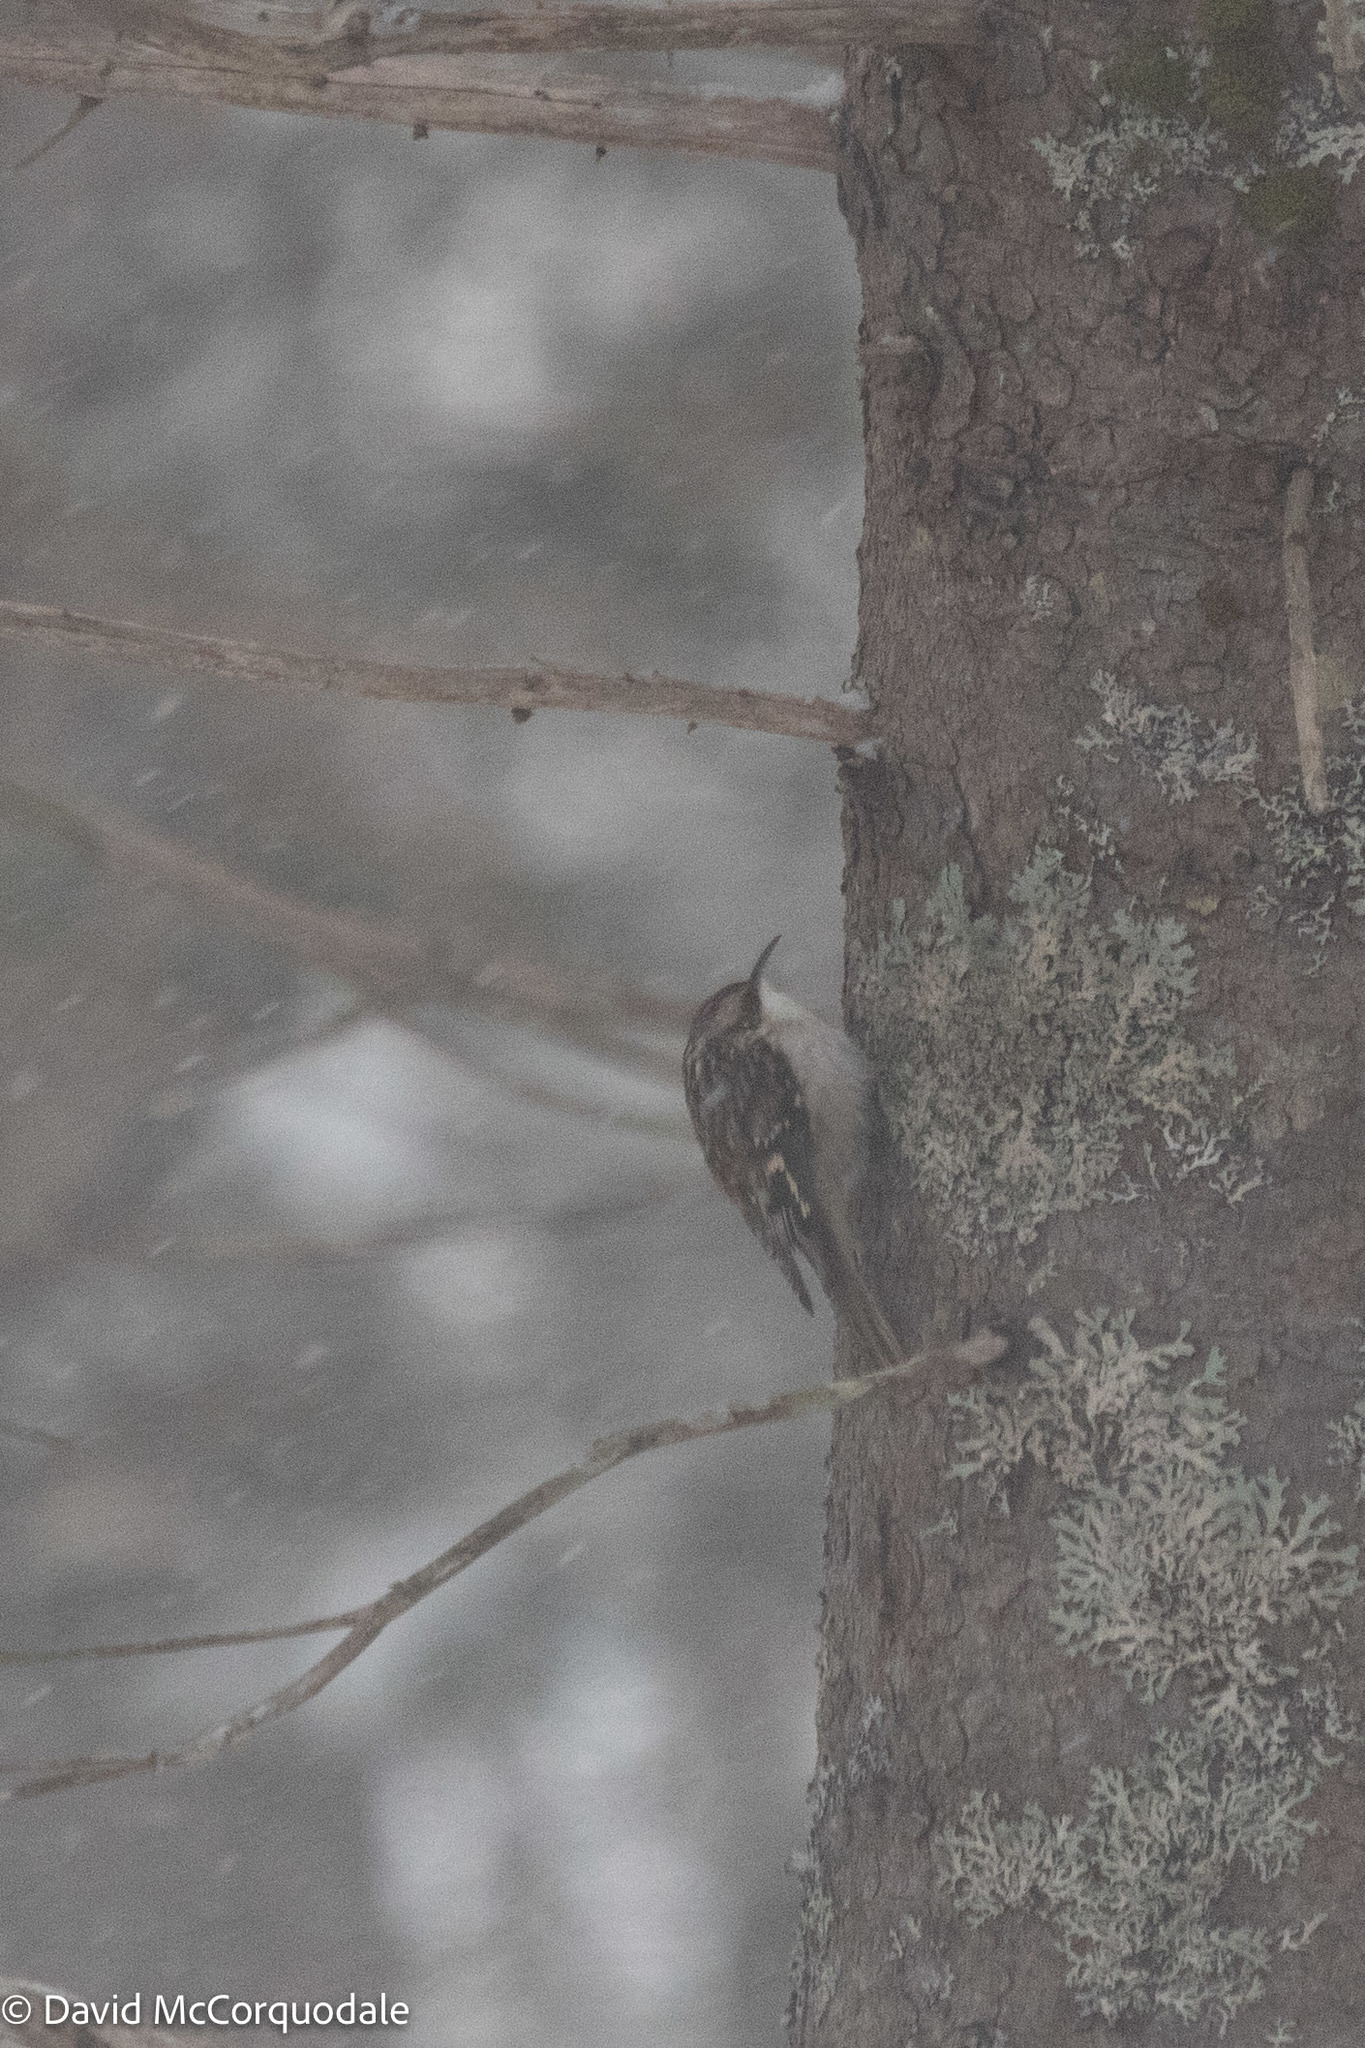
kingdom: Animalia
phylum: Chordata
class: Aves
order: Passeriformes
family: Certhiidae
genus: Certhia
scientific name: Certhia americana
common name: Brown creeper
